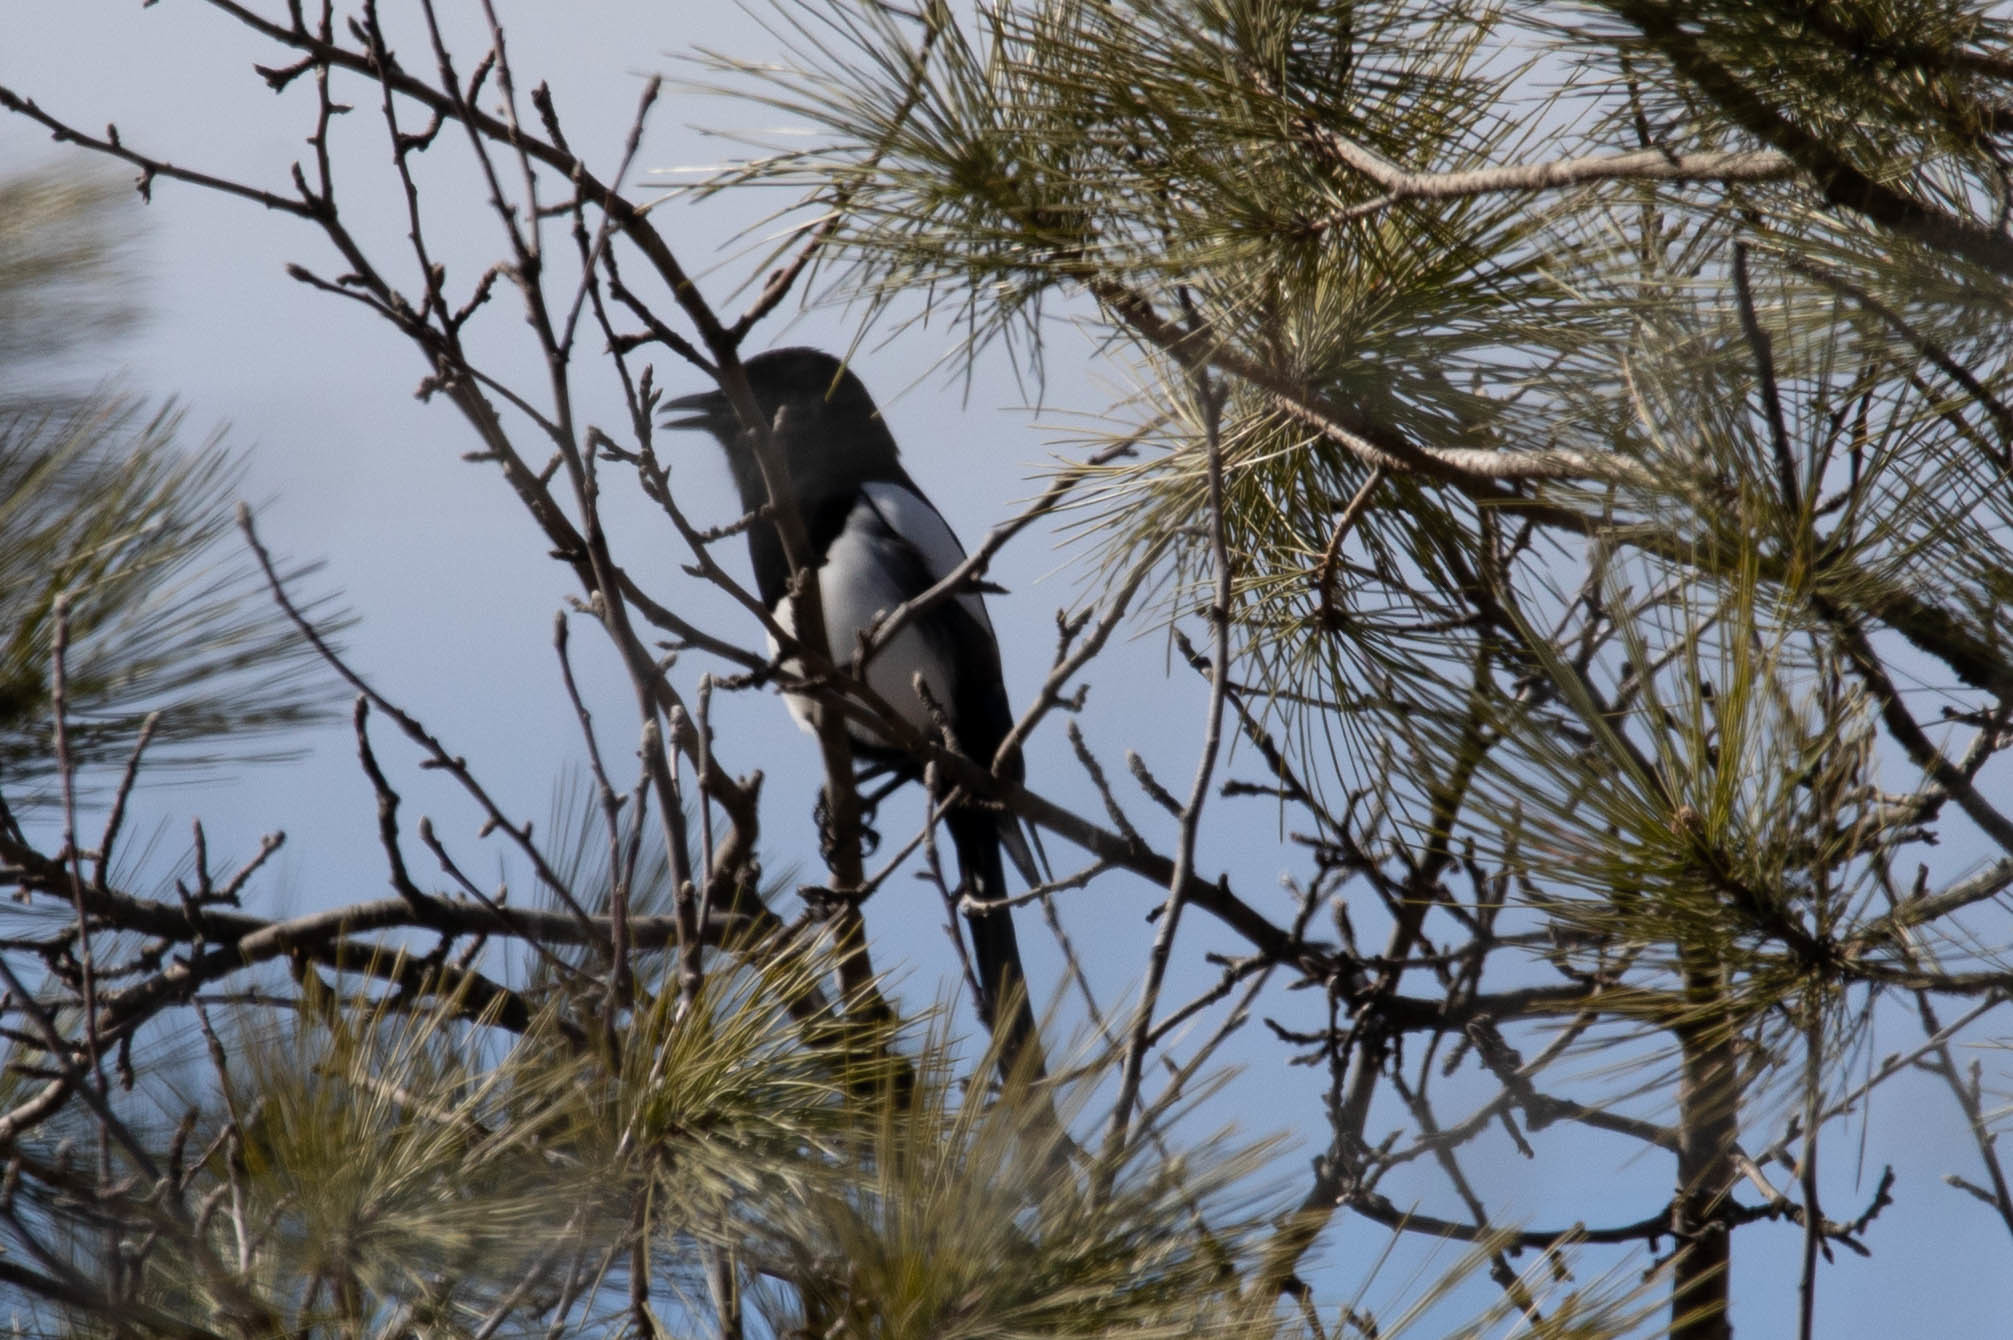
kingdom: Animalia
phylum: Chordata
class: Aves
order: Passeriformes
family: Corvidae
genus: Pica
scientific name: Pica hudsonia
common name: Black-billed magpie
